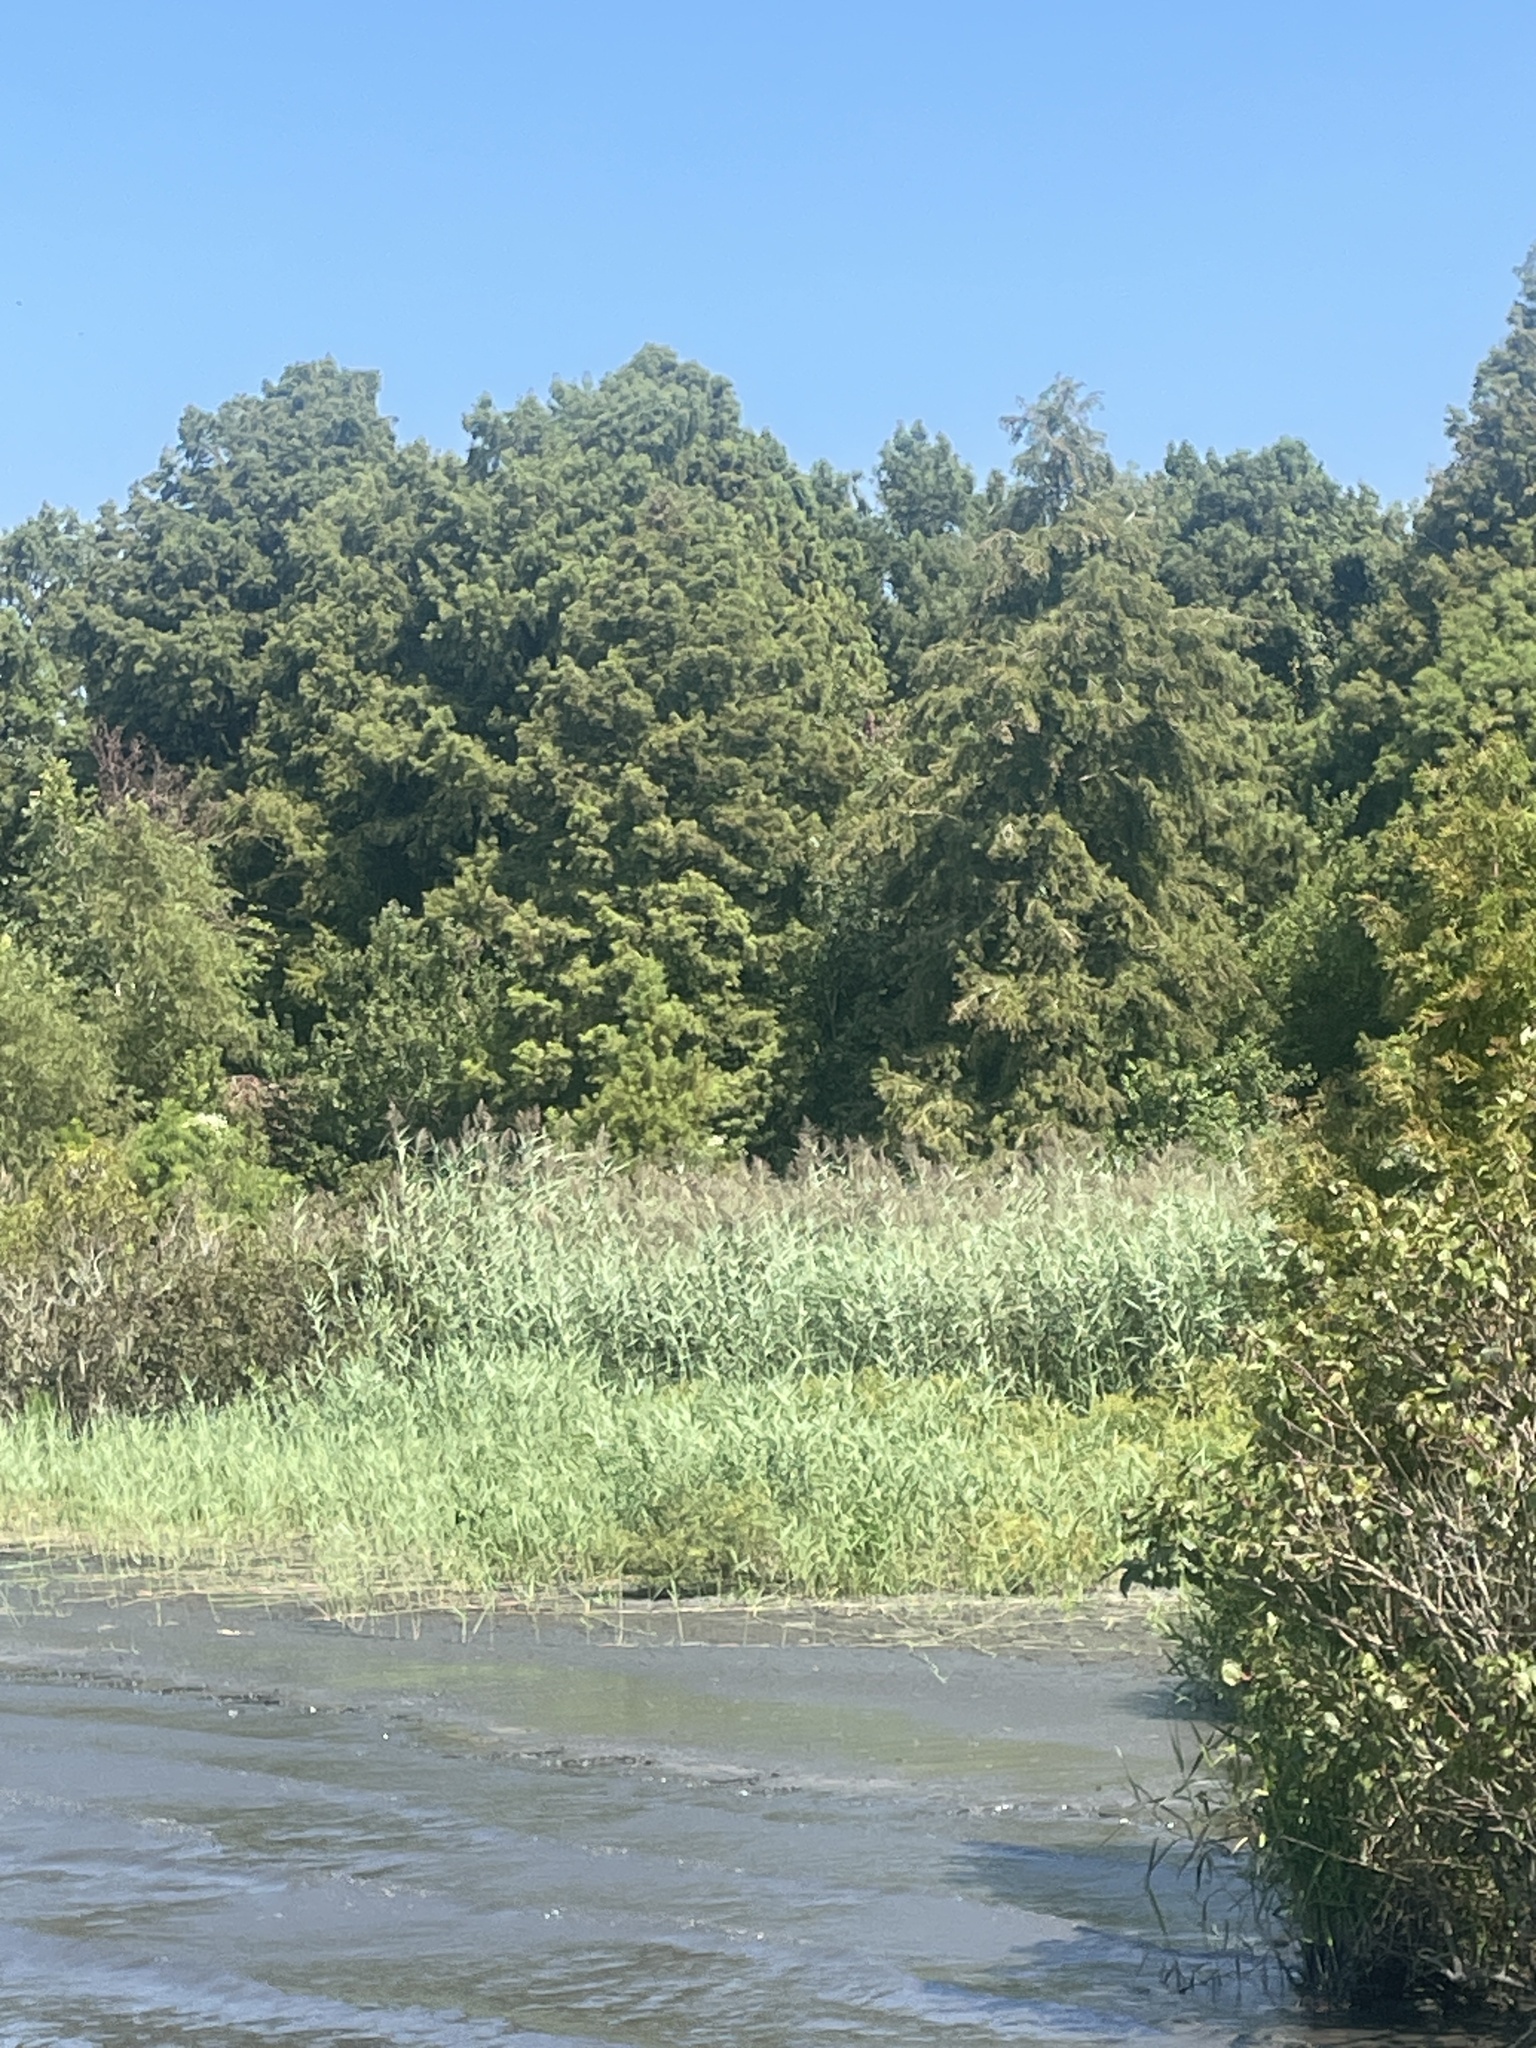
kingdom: Plantae
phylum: Tracheophyta
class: Liliopsida
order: Poales
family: Poaceae
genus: Phragmites
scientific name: Phragmites australis
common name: Common reed
